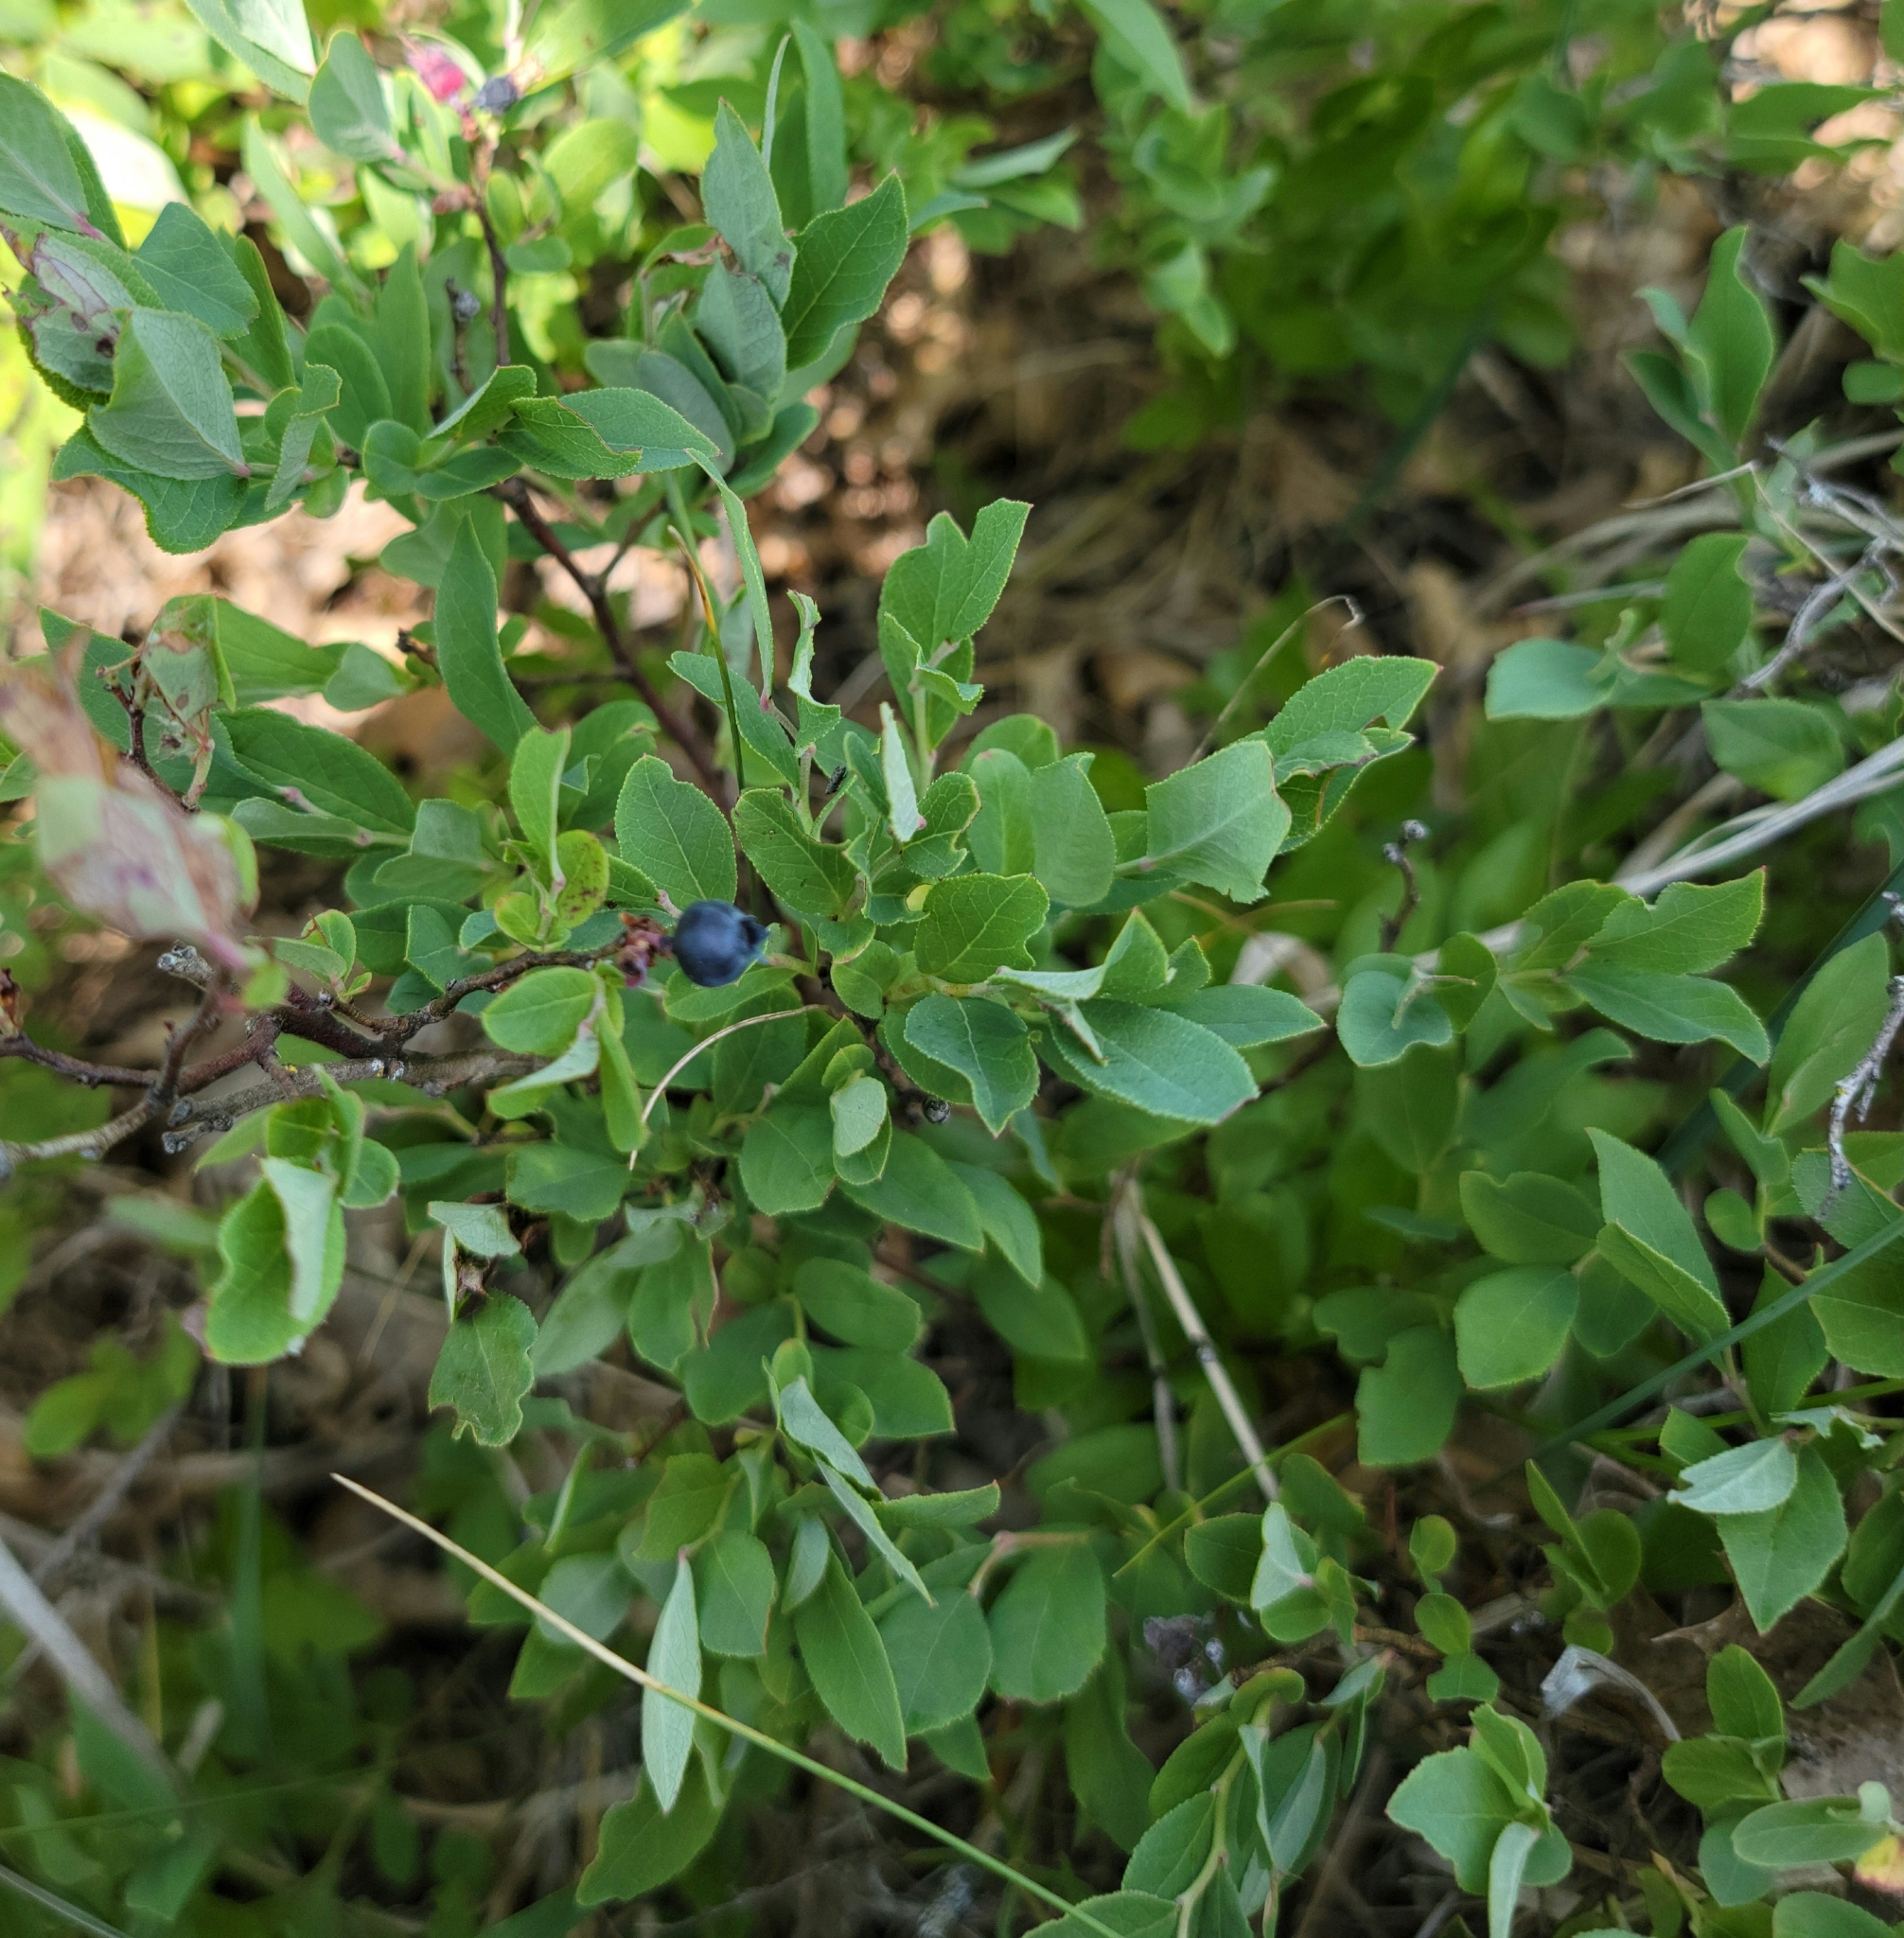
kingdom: Plantae
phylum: Tracheophyta
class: Magnoliopsida
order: Ericales
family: Ericaceae
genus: Vaccinium
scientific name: Vaccinium angustifolium
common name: Early lowbush blueberry
